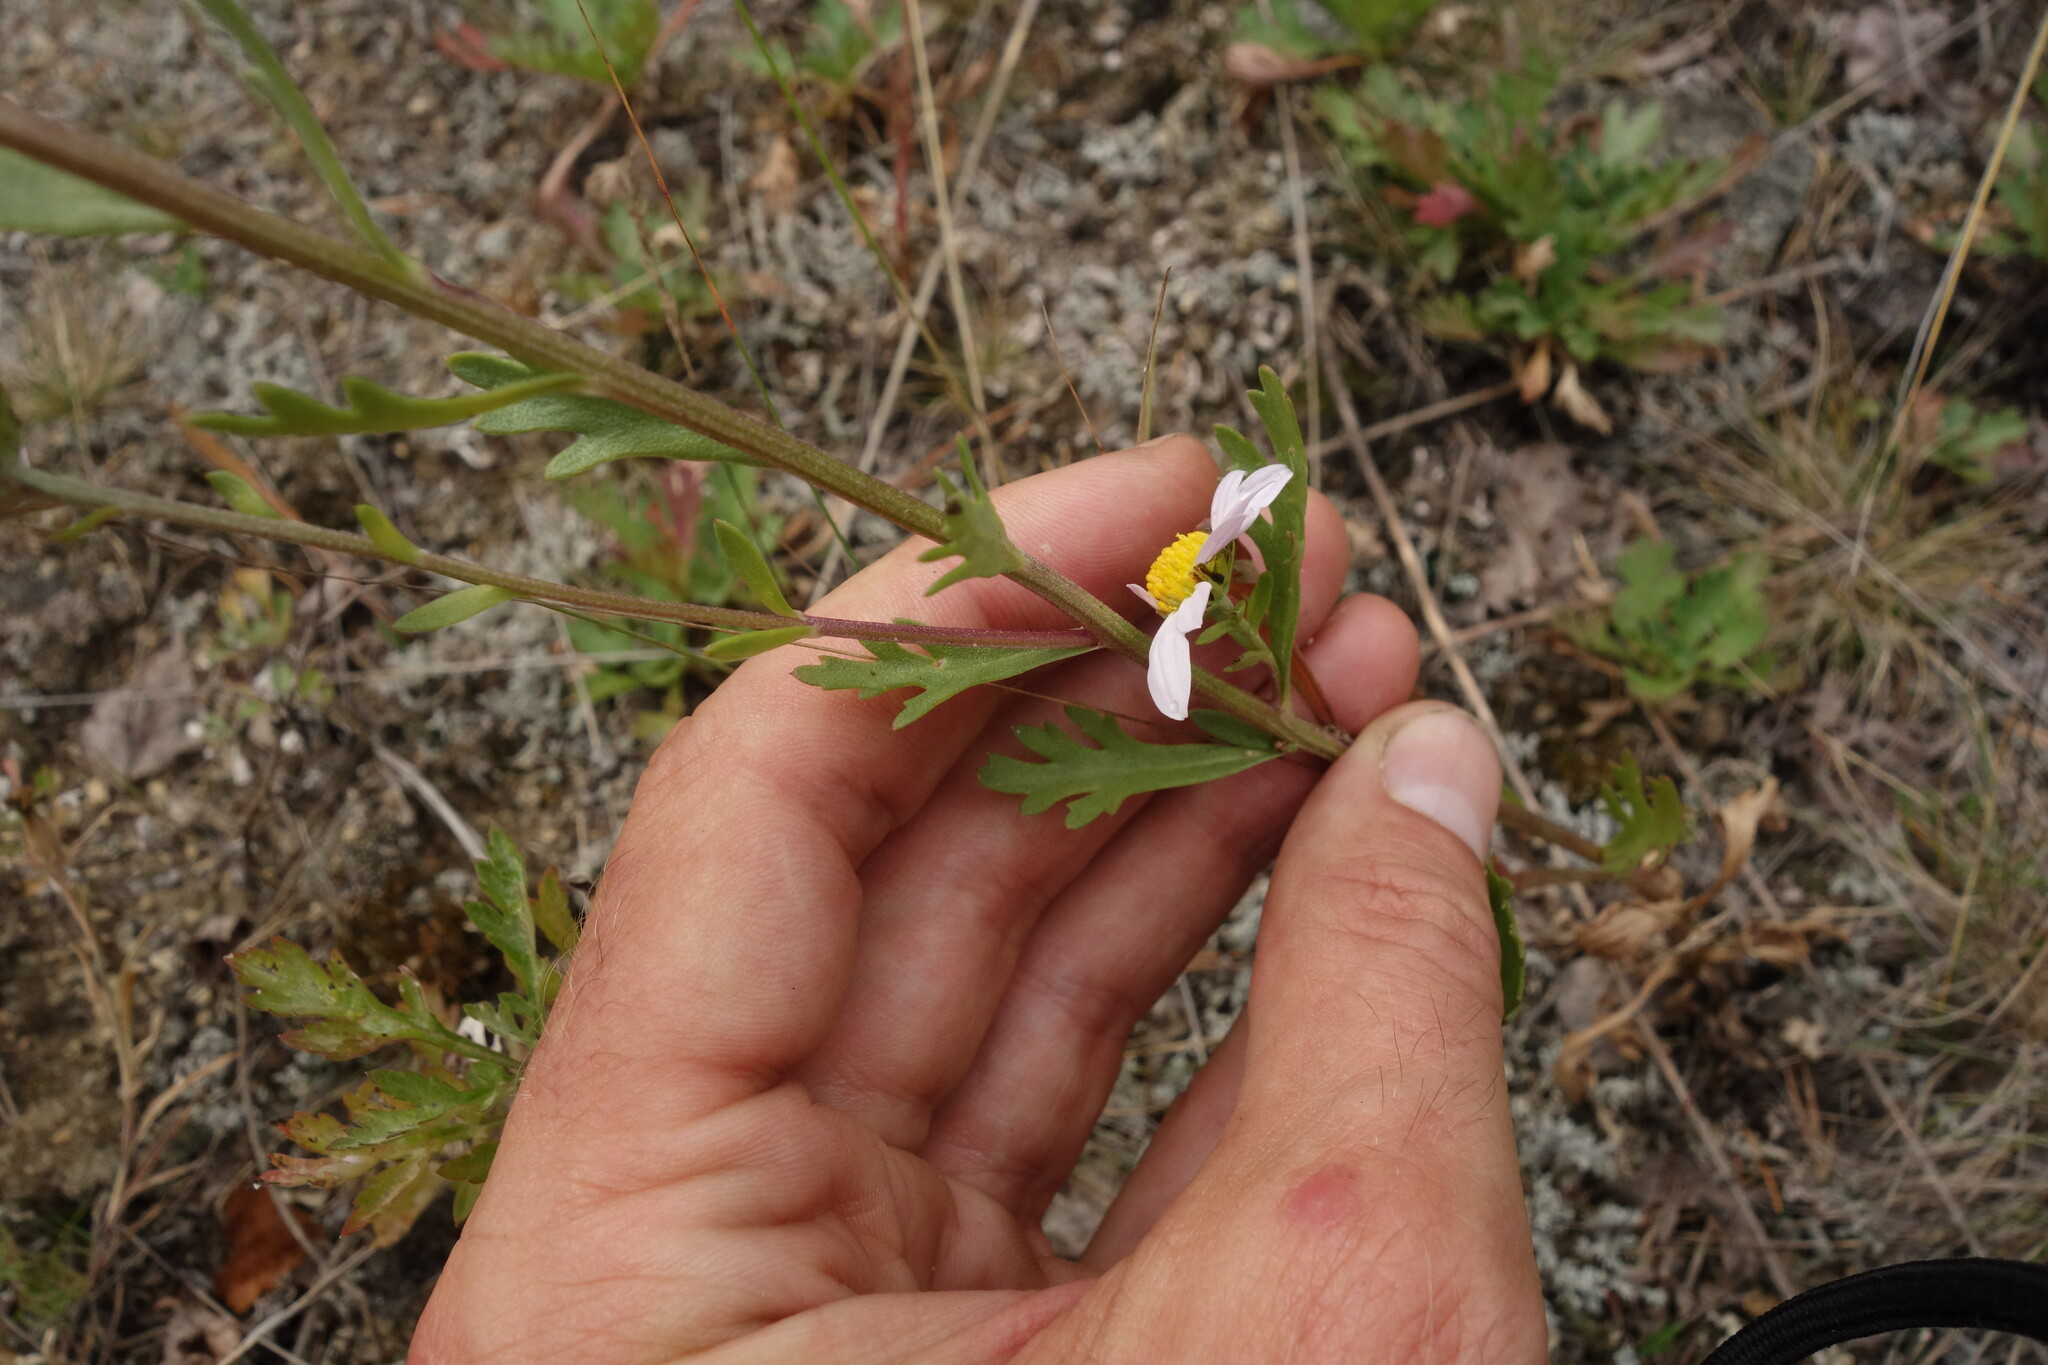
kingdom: Plantae
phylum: Tracheophyta
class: Magnoliopsida
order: Asterales
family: Asteraceae
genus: Chrysanthemum
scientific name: Chrysanthemum zawadzkii
